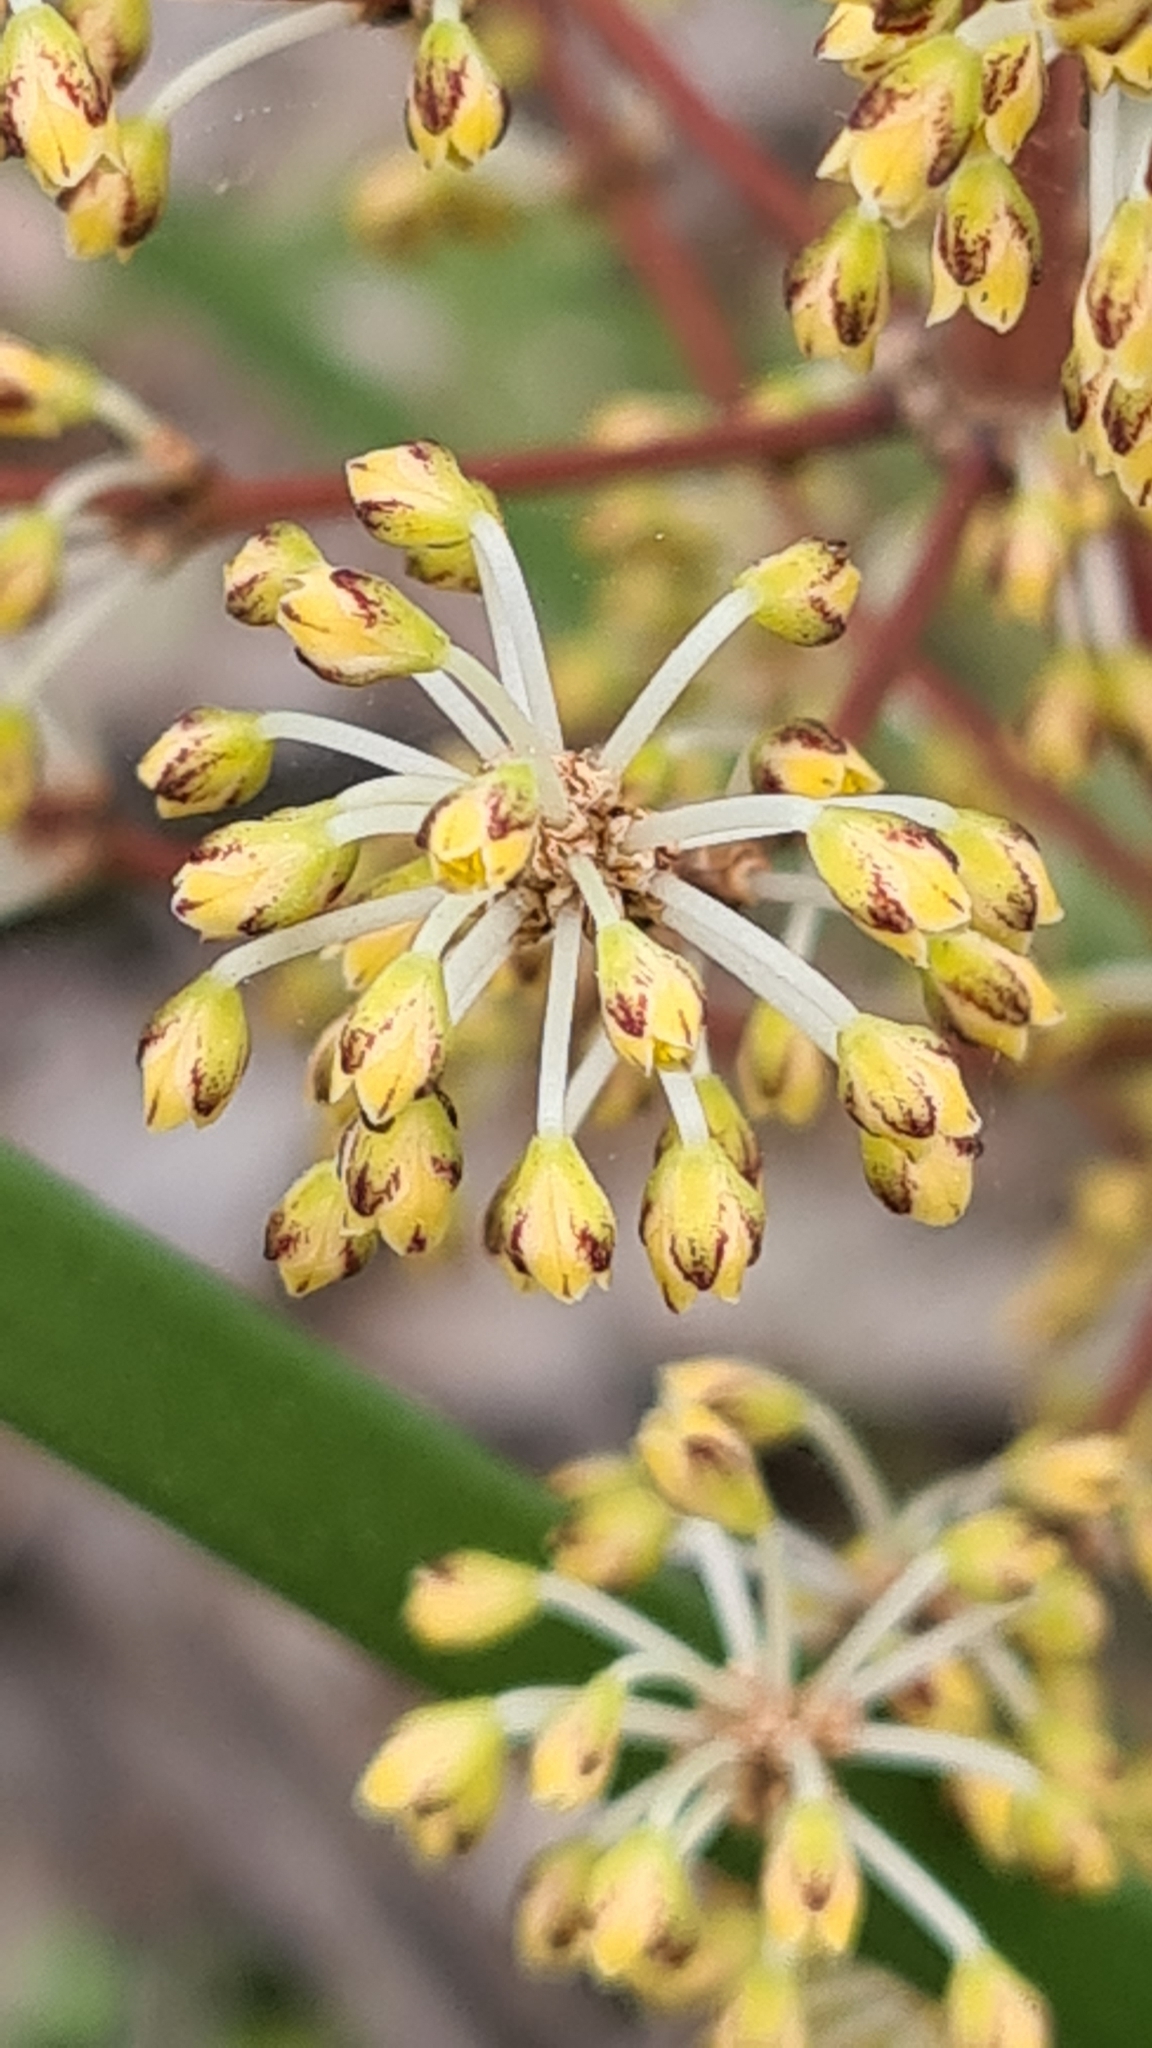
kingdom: Plantae
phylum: Tracheophyta
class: Liliopsida
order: Asparagales
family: Asparagaceae
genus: Lomandra
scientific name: Lomandra multiflora
